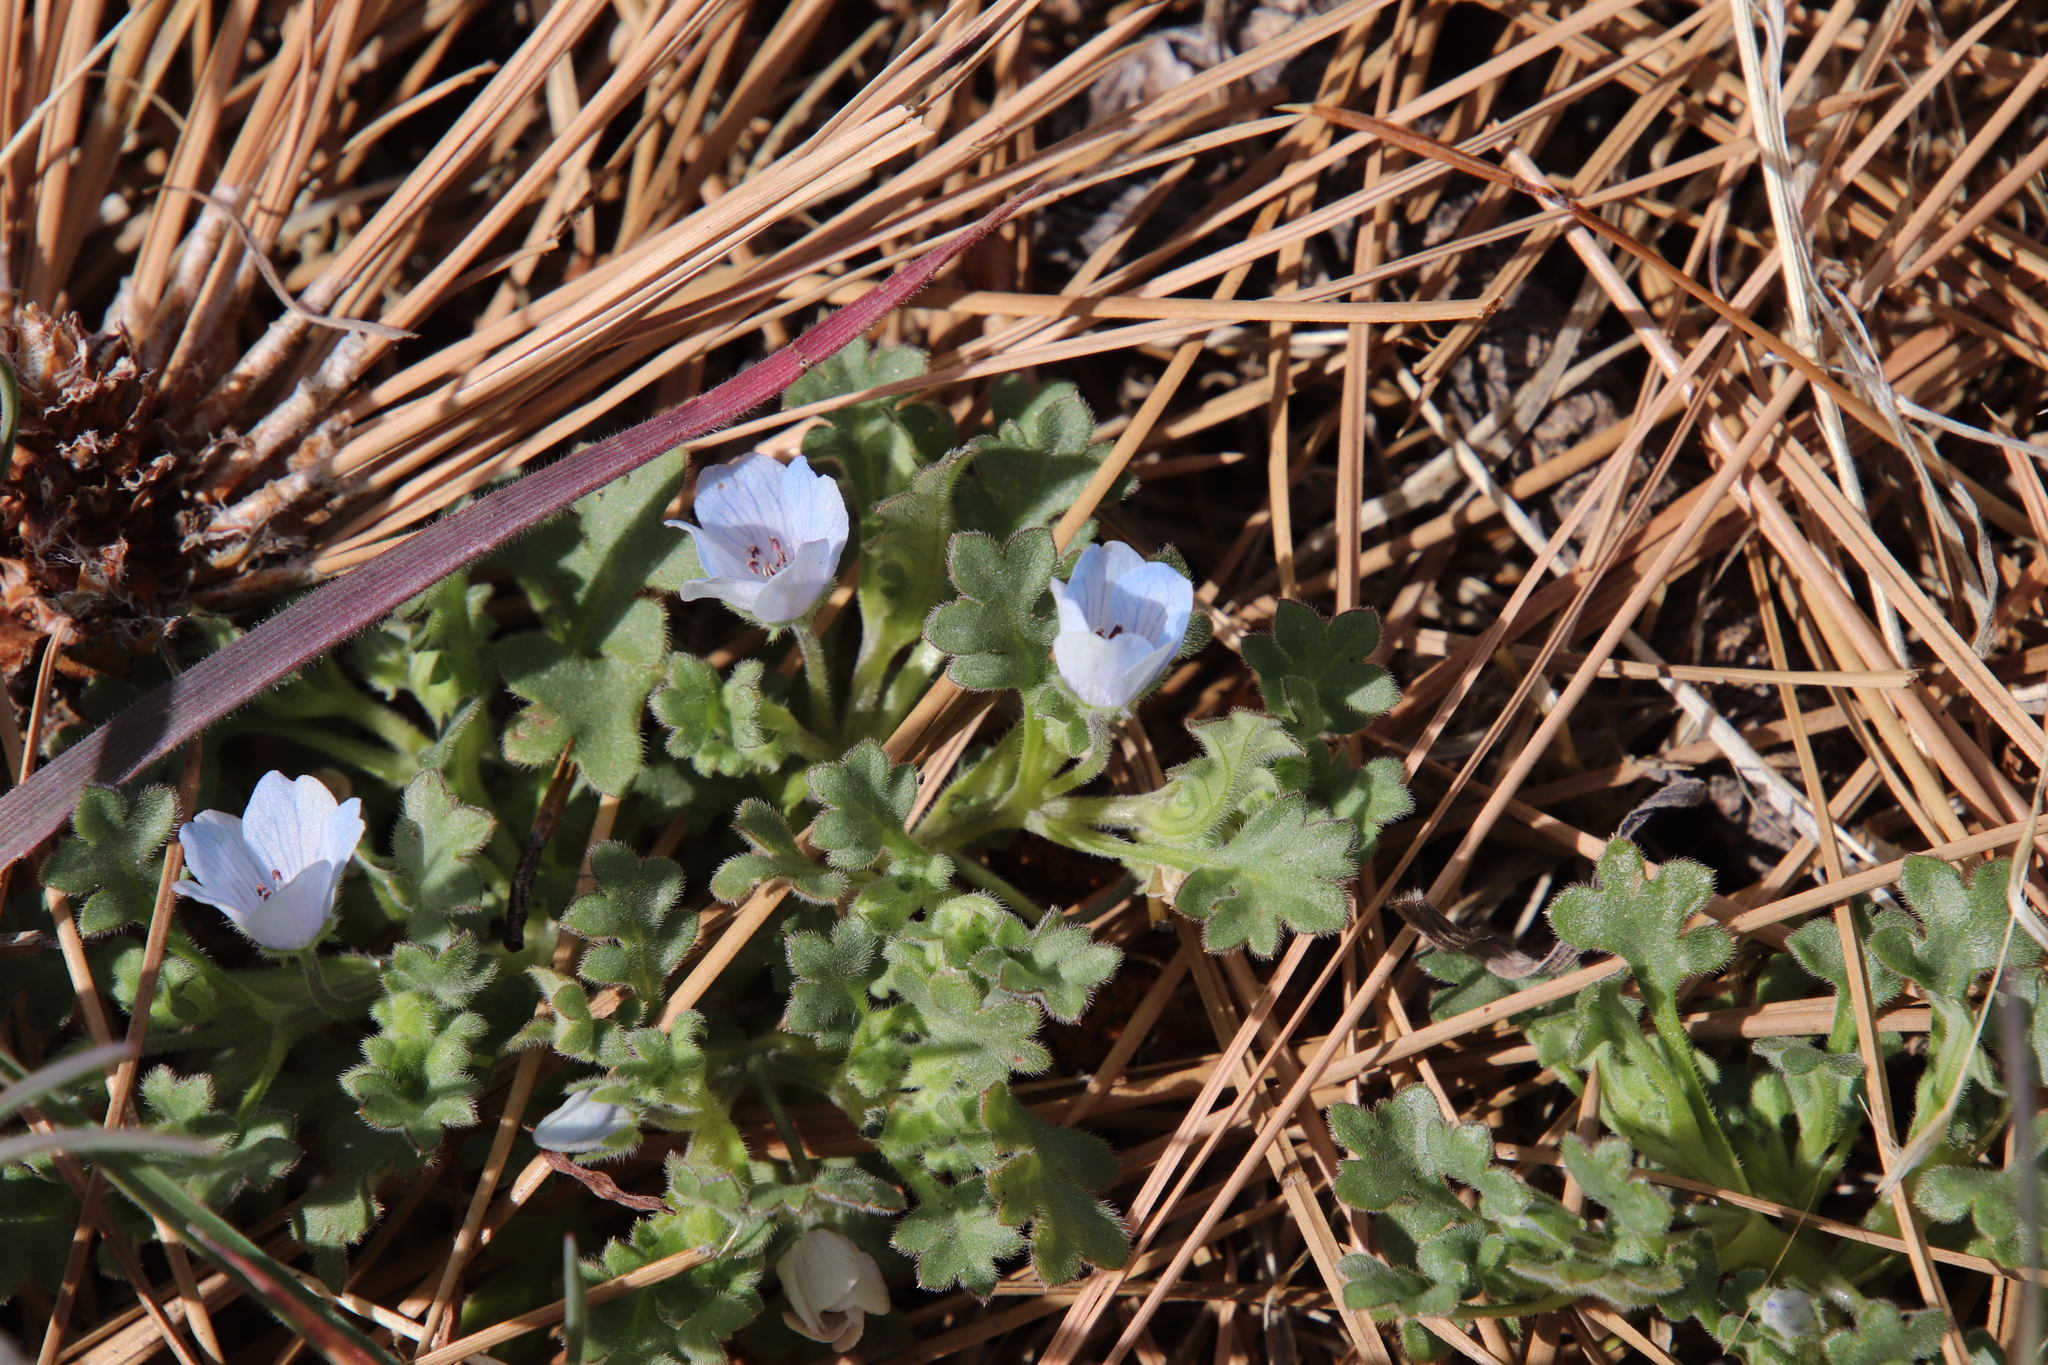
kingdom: Plantae
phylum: Tracheophyta
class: Magnoliopsida
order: Boraginales
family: Hydrophyllaceae
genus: Nemophila
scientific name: Nemophila menziesii
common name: Baby's-blue-eyes
